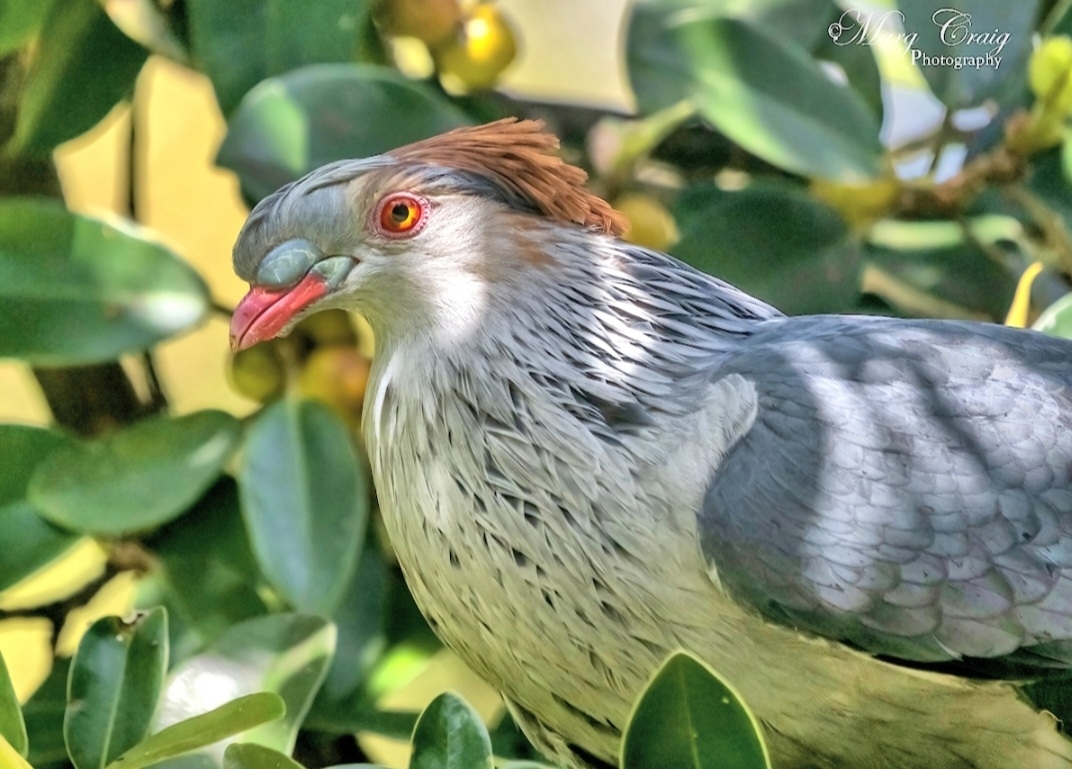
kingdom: Animalia
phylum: Chordata
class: Aves
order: Columbiformes
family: Columbidae
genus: Lopholaimus
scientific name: Lopholaimus antarcticus
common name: Topknot pigeon
